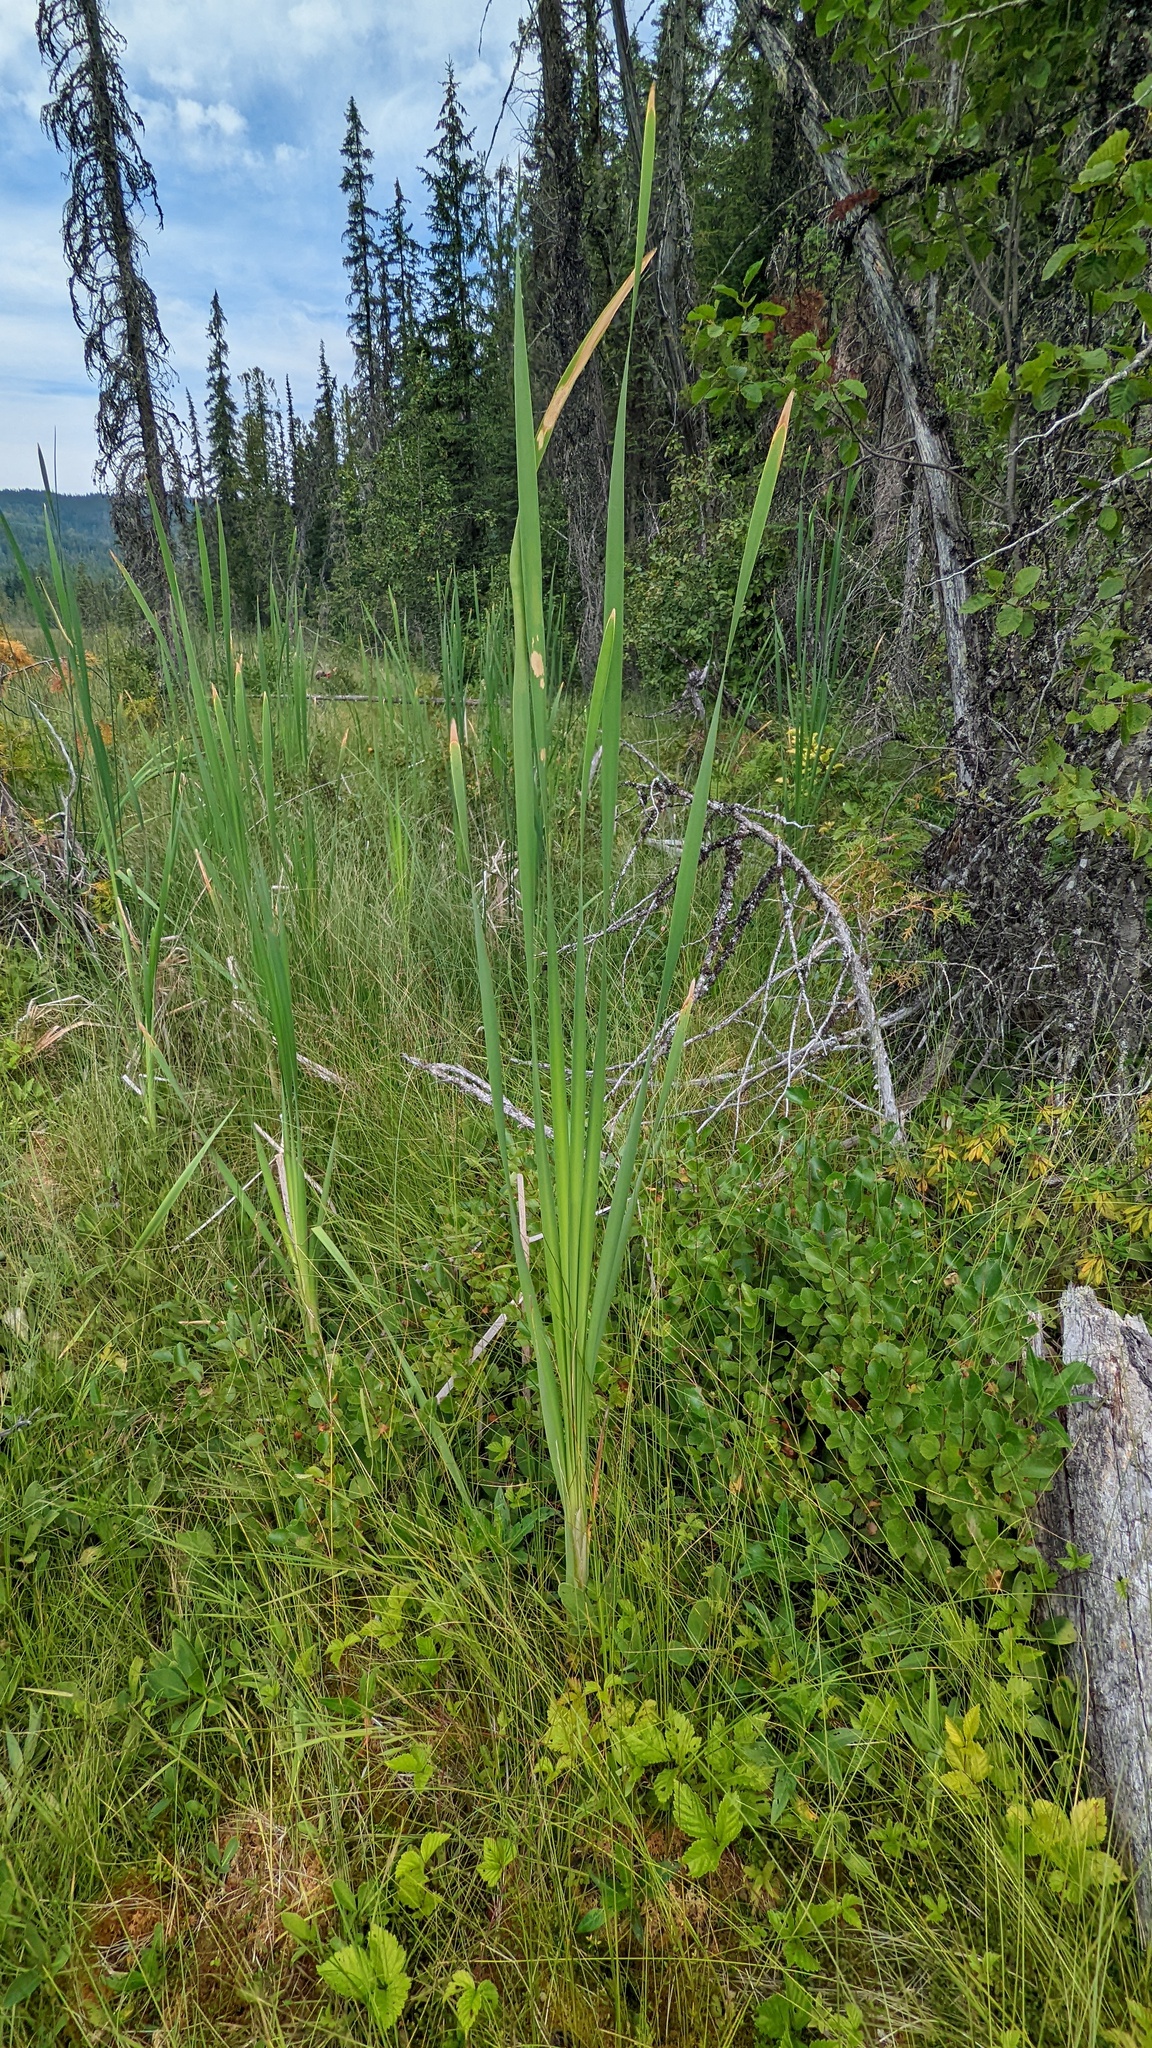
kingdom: Plantae
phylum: Tracheophyta
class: Liliopsida
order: Poales
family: Typhaceae
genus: Typha
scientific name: Typha latifolia
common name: Broadleaf cattail
